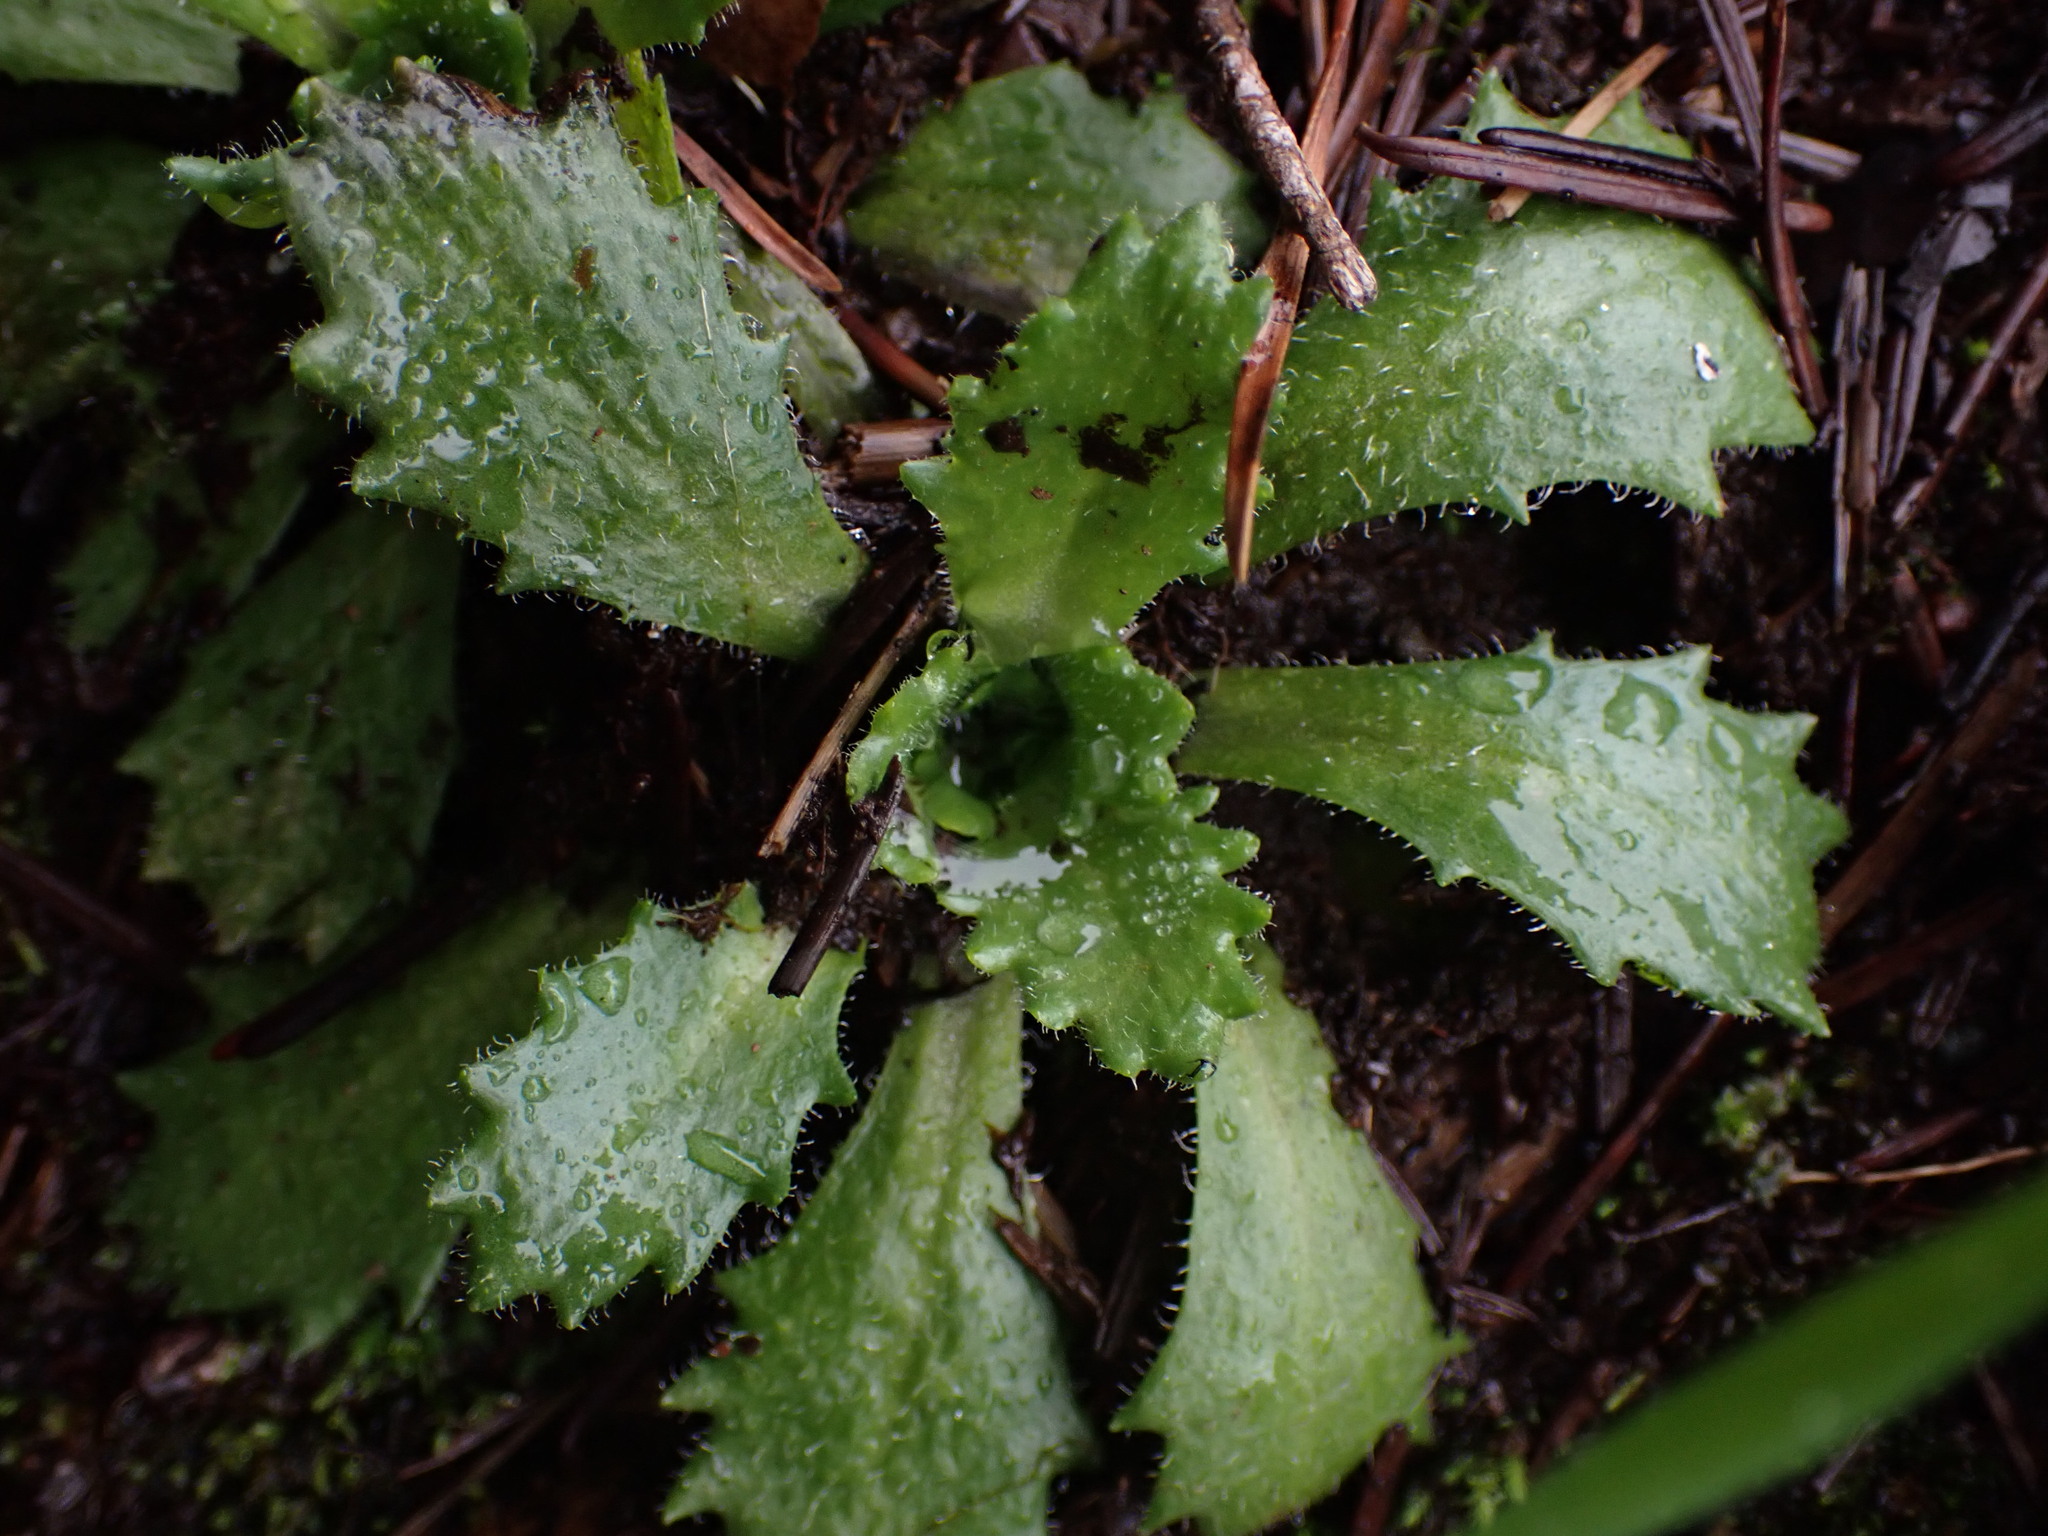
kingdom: Plantae
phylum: Tracheophyta
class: Magnoliopsida
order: Saxifragales
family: Saxifragaceae
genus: Micranthes
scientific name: Micranthes ferruginea
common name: Rusty saxifrage
